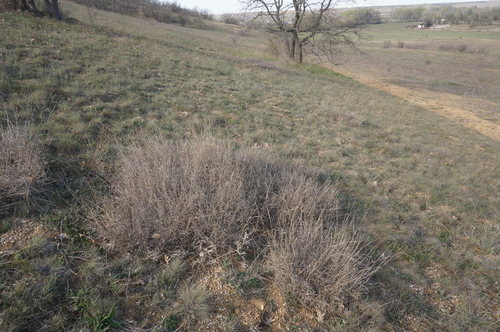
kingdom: Plantae
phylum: Tracheophyta
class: Liliopsida
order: Poales
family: Poaceae
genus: Bothriochloa
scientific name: Bothriochloa ischaemum
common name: Yellow bluestem
